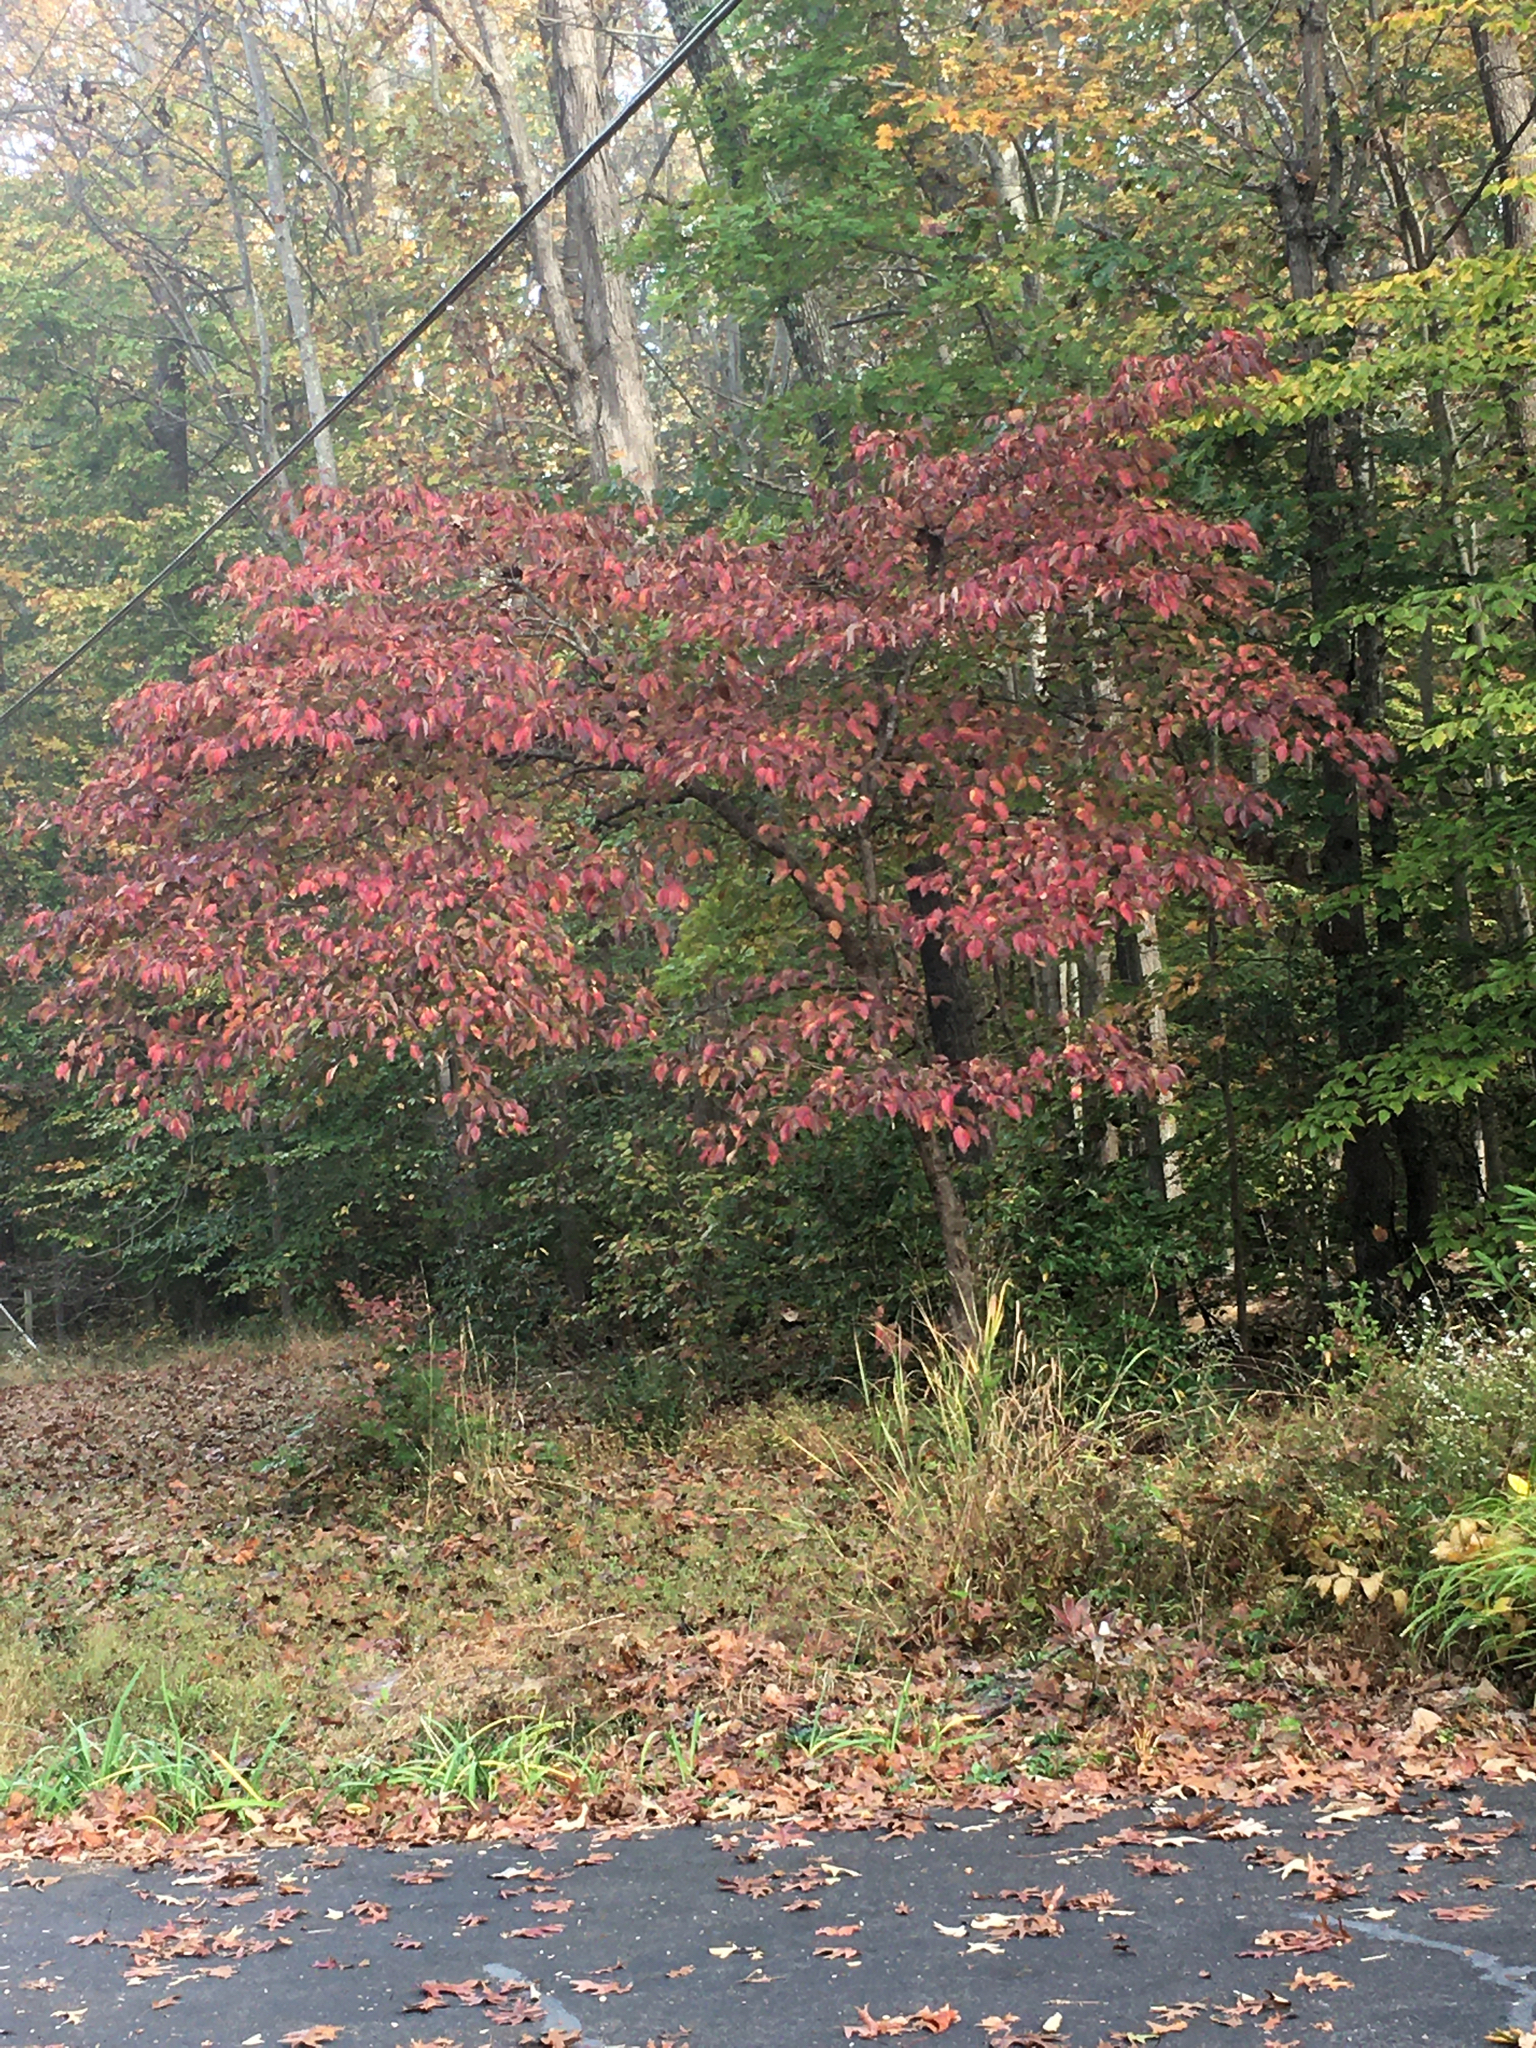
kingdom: Plantae
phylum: Tracheophyta
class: Magnoliopsida
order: Cornales
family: Cornaceae
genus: Cornus
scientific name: Cornus florida
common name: Flowering dogwood
